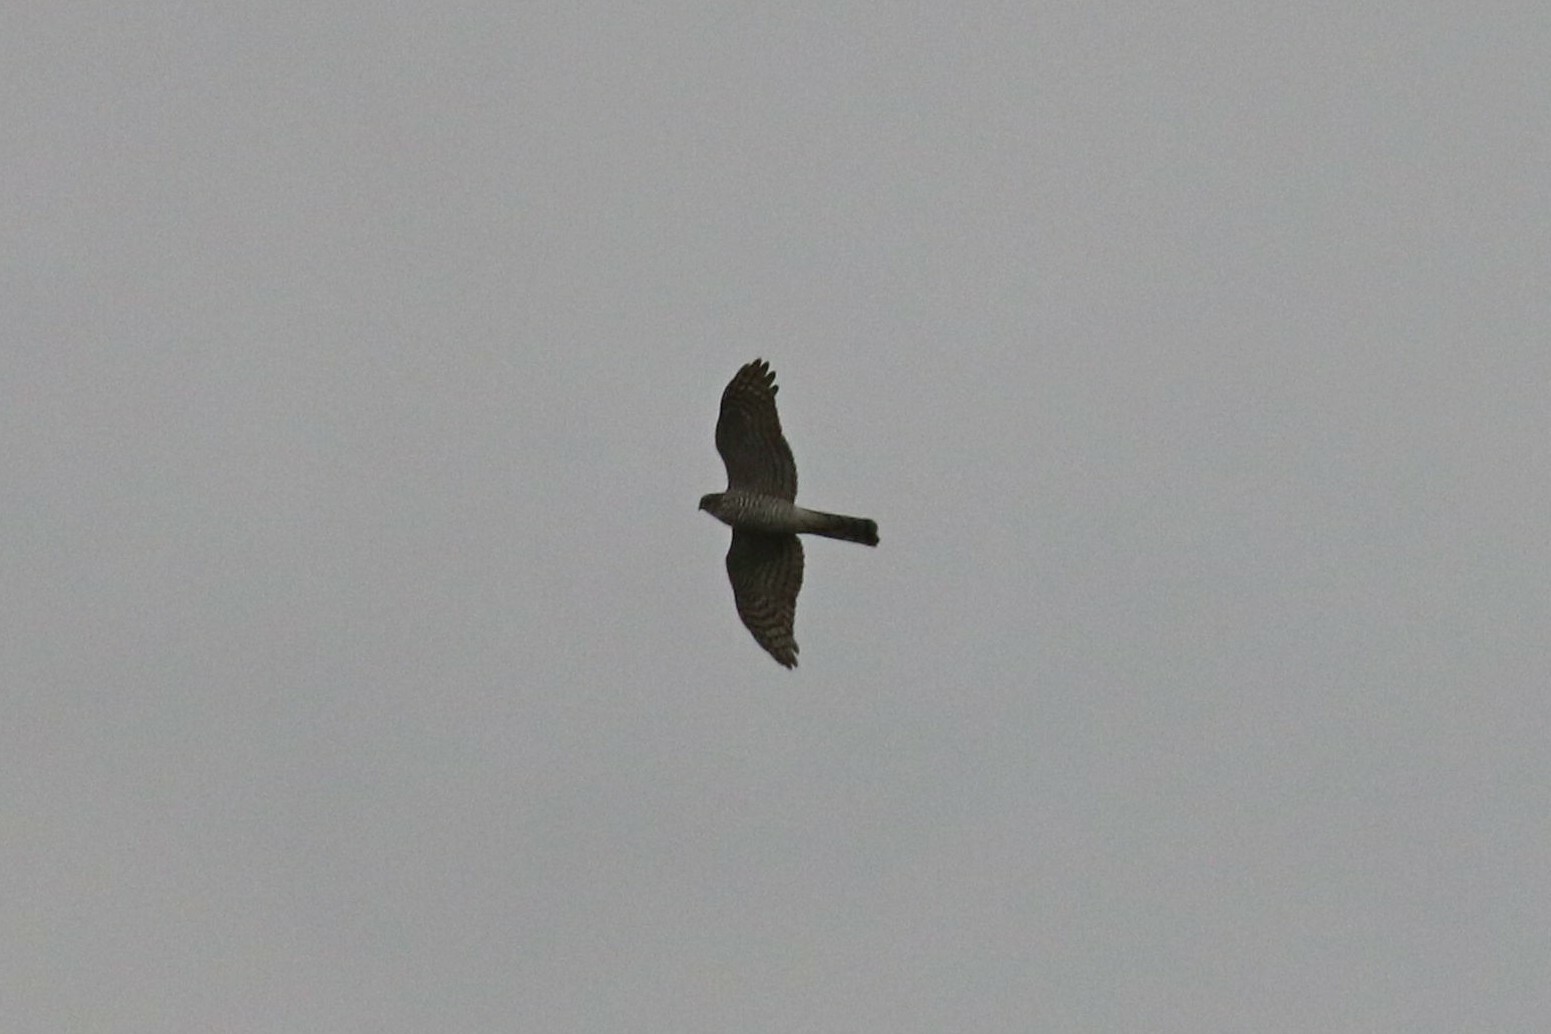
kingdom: Animalia
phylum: Chordata
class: Aves
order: Accipitriformes
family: Accipitridae
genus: Accipiter
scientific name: Accipiter nisus
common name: Eurasian sparrowhawk
